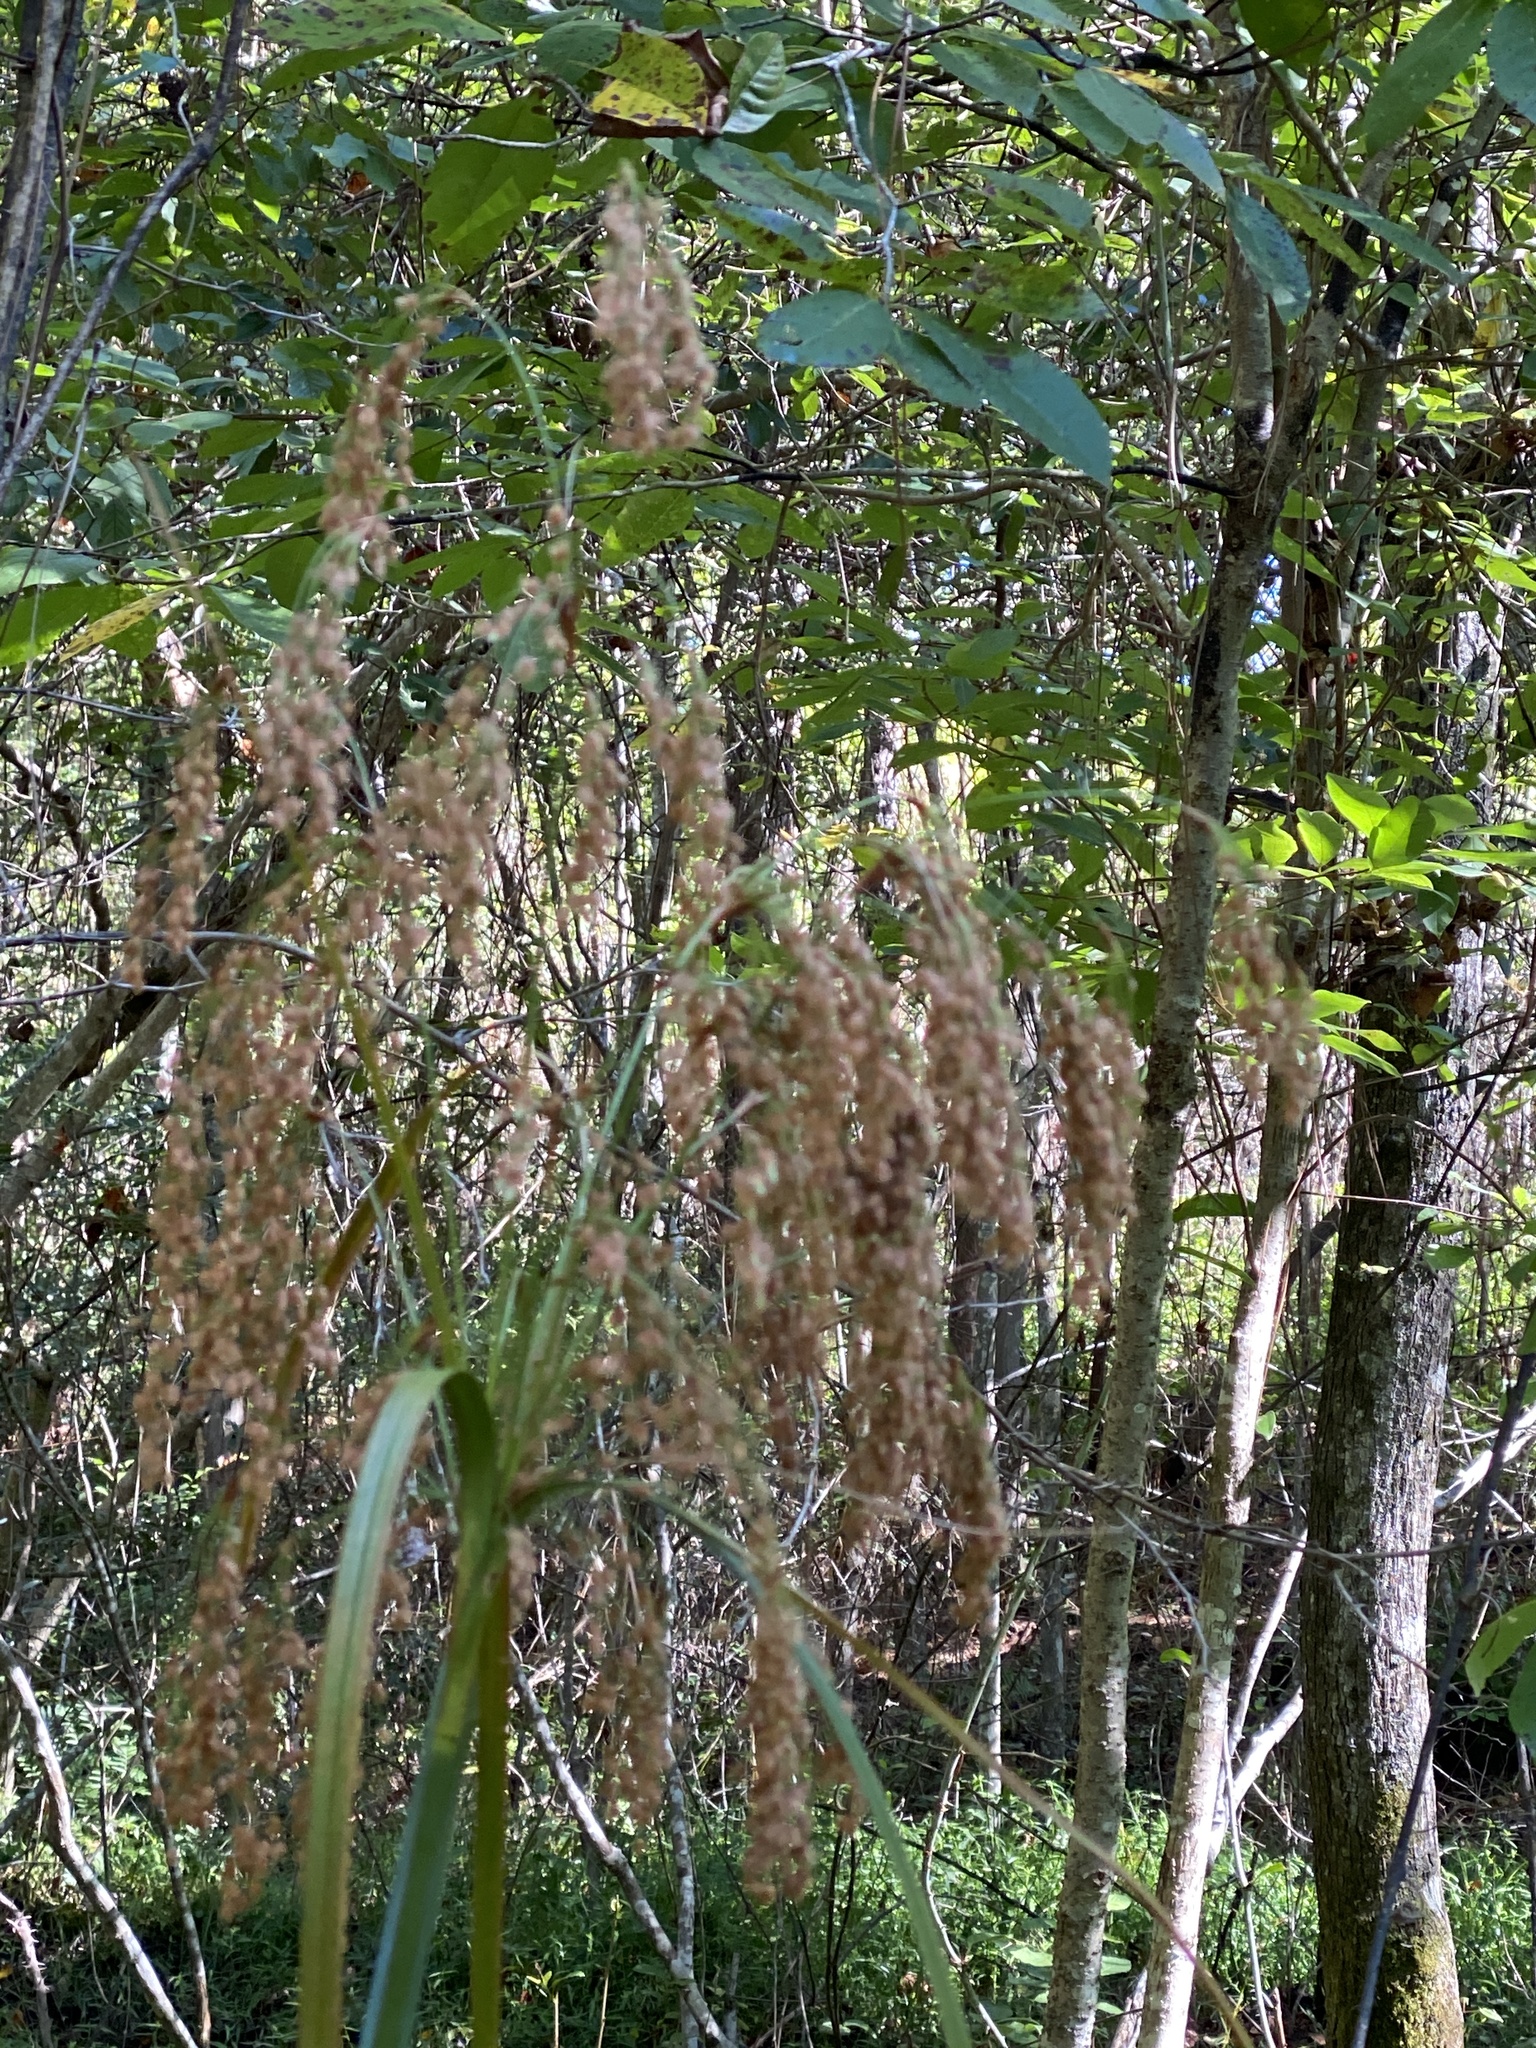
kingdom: Plantae
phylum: Tracheophyta
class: Liliopsida
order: Poales
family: Cyperaceae
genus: Scirpus
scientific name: Scirpus cyperinus
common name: Black-sheathed bulrush
